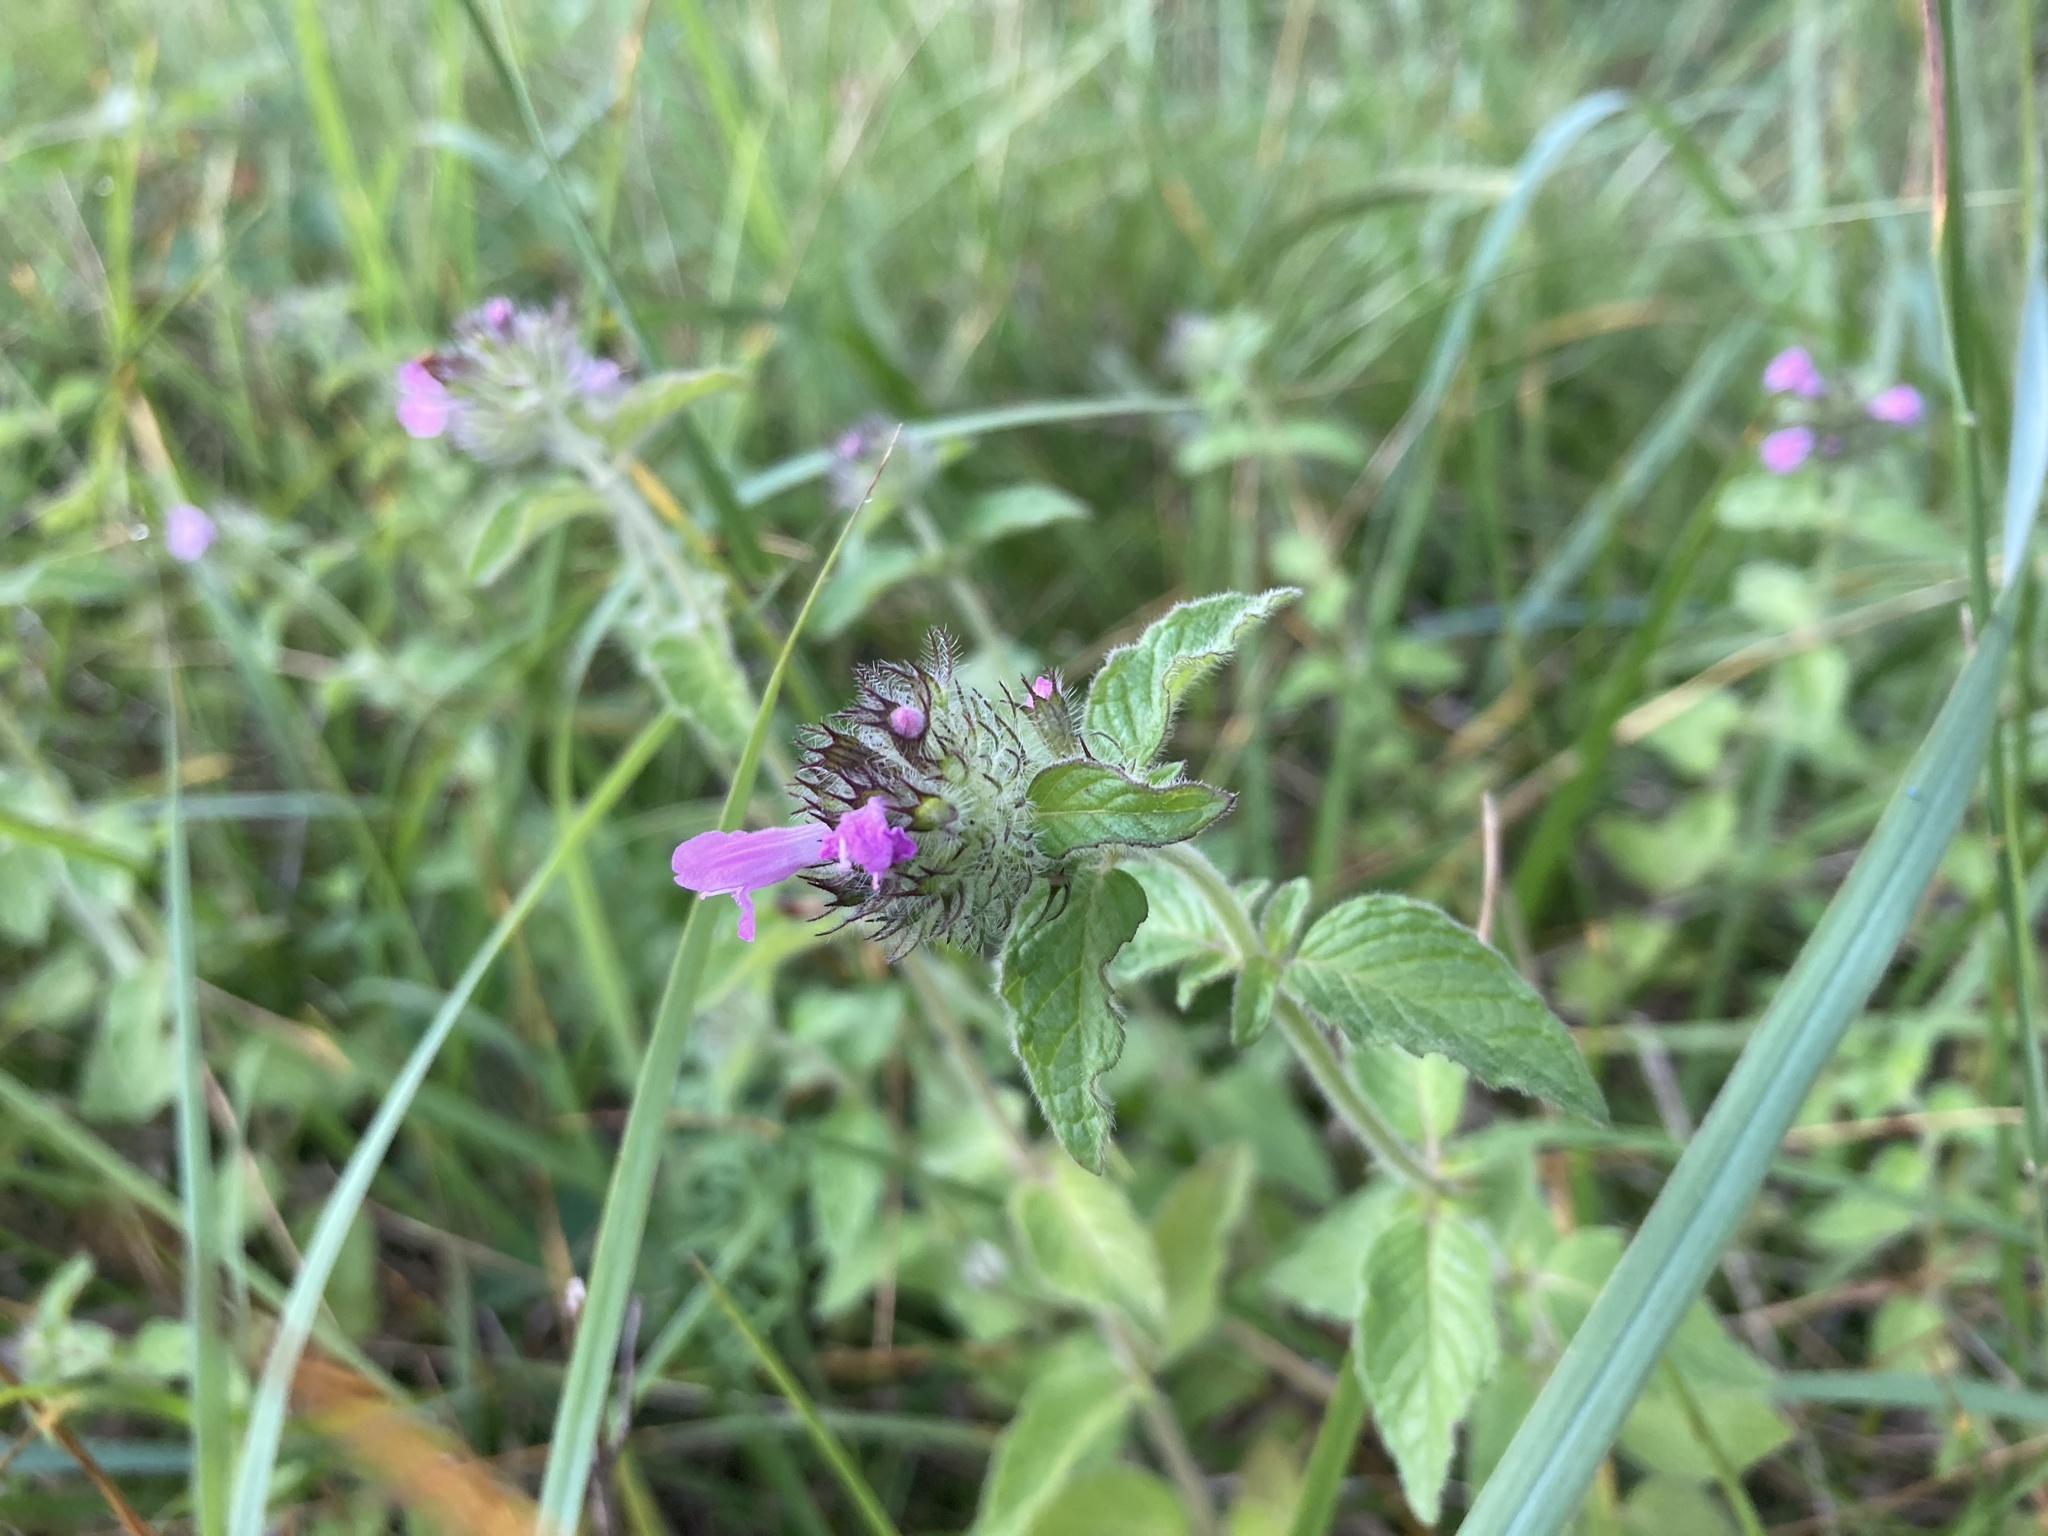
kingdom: Plantae
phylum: Tracheophyta
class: Magnoliopsida
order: Lamiales
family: Lamiaceae
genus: Clinopodium
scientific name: Clinopodium vulgare
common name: Wild basil
